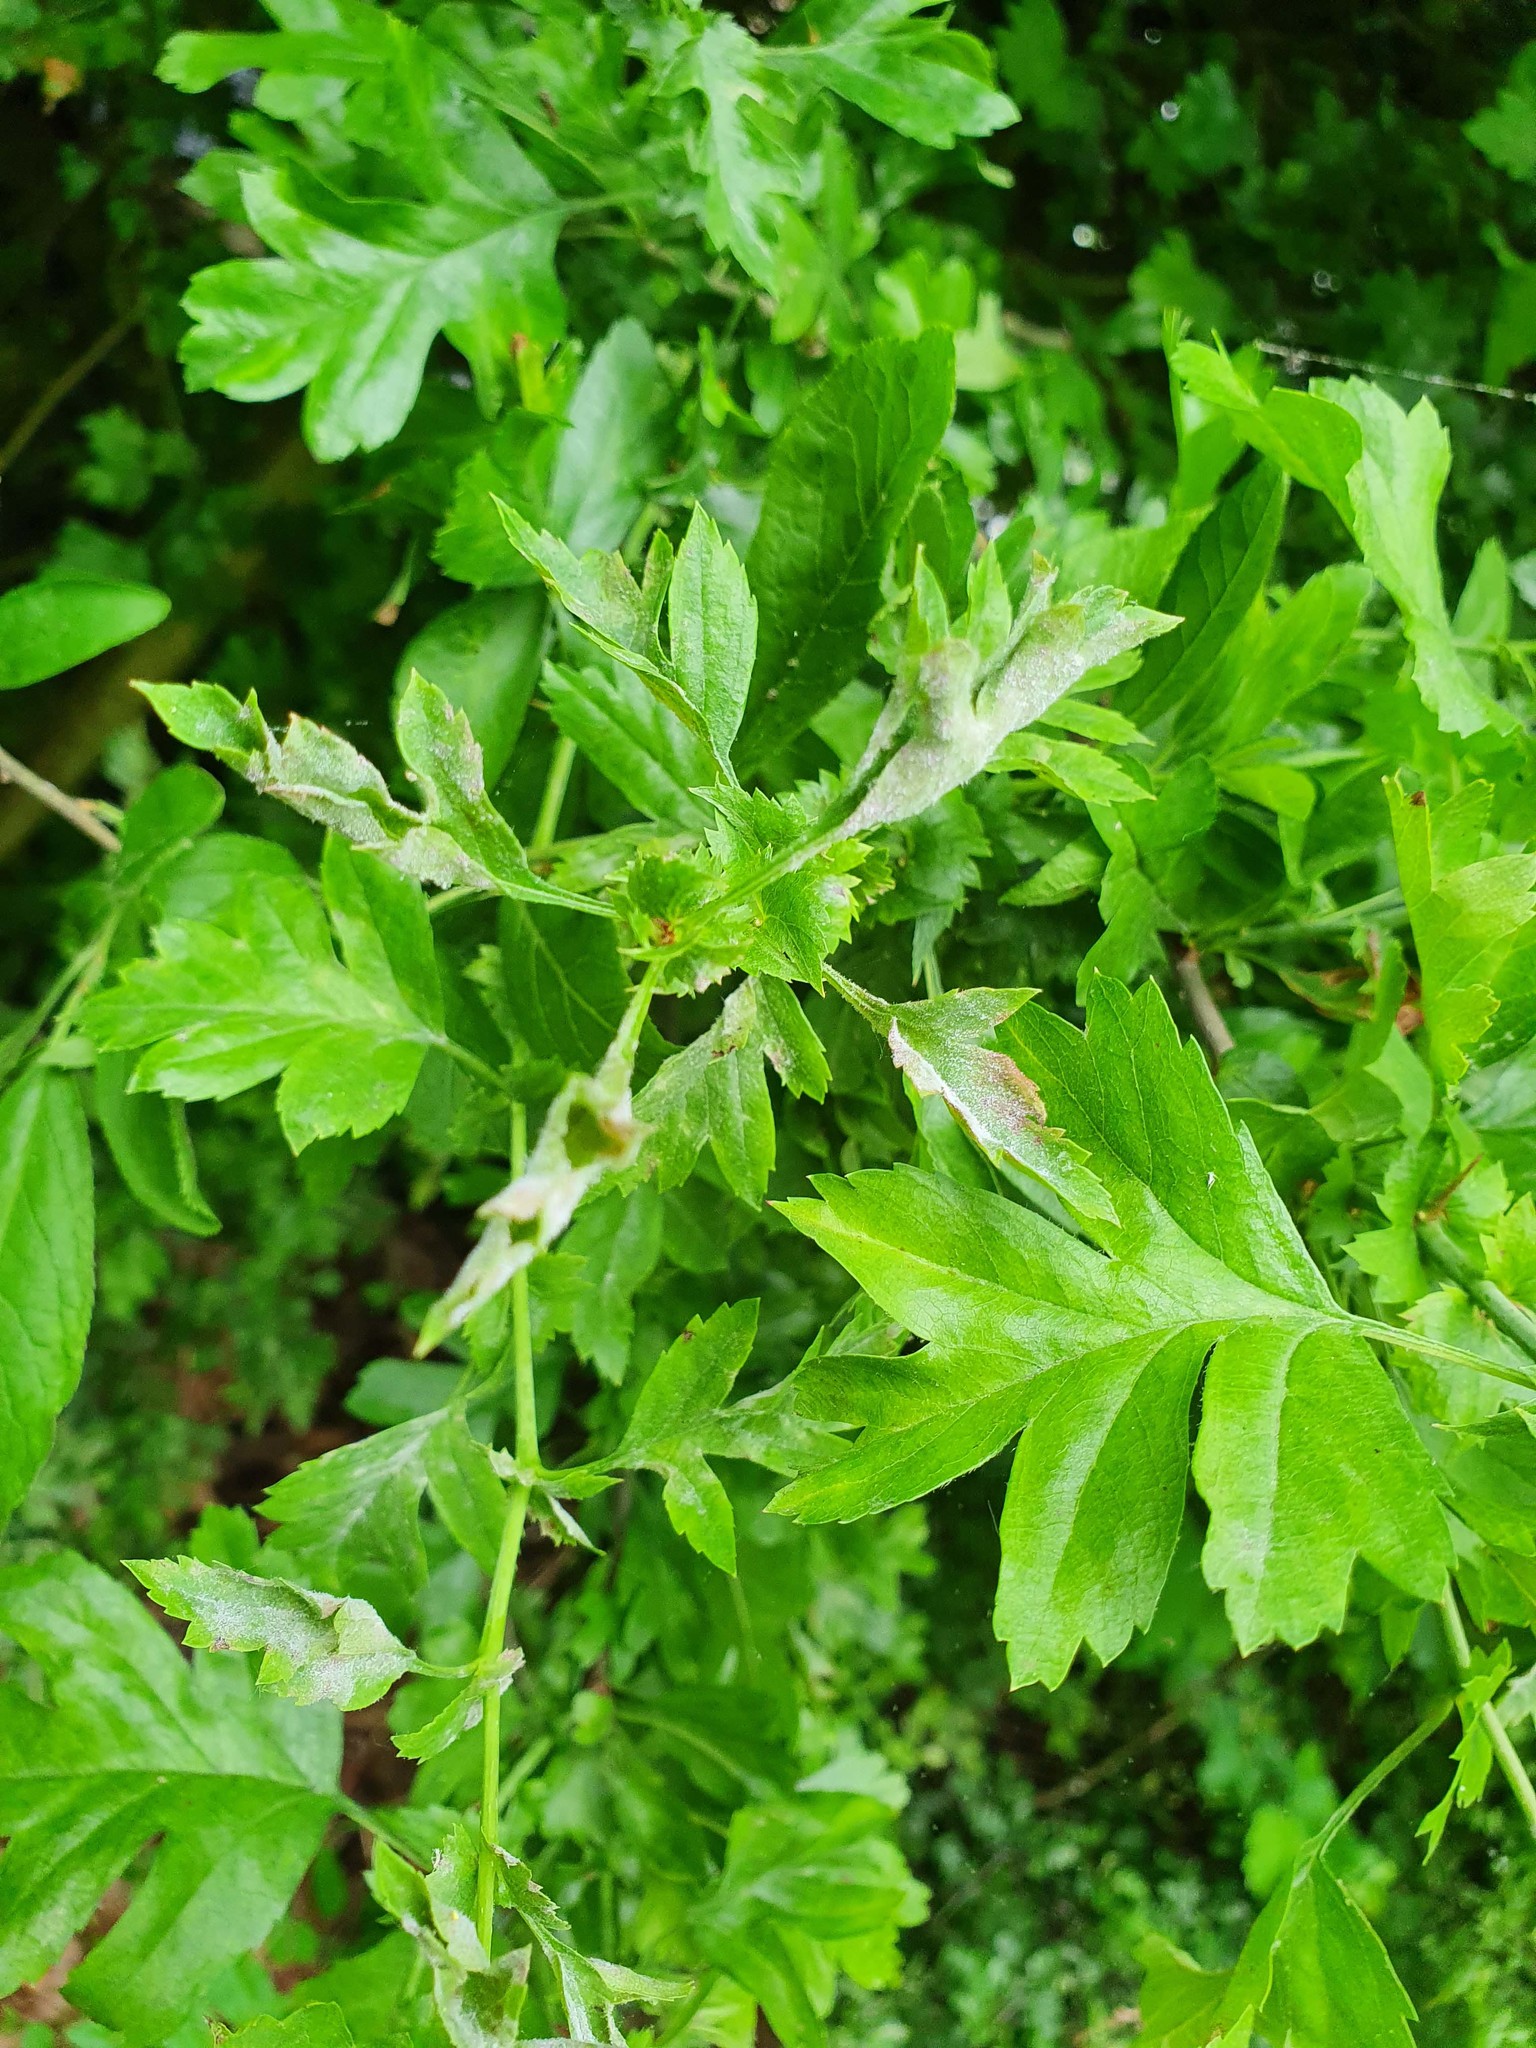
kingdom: Fungi
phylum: Ascomycota
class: Leotiomycetes
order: Helotiales
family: Erysiphaceae
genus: Podosphaera
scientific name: Podosphaera clandestina
